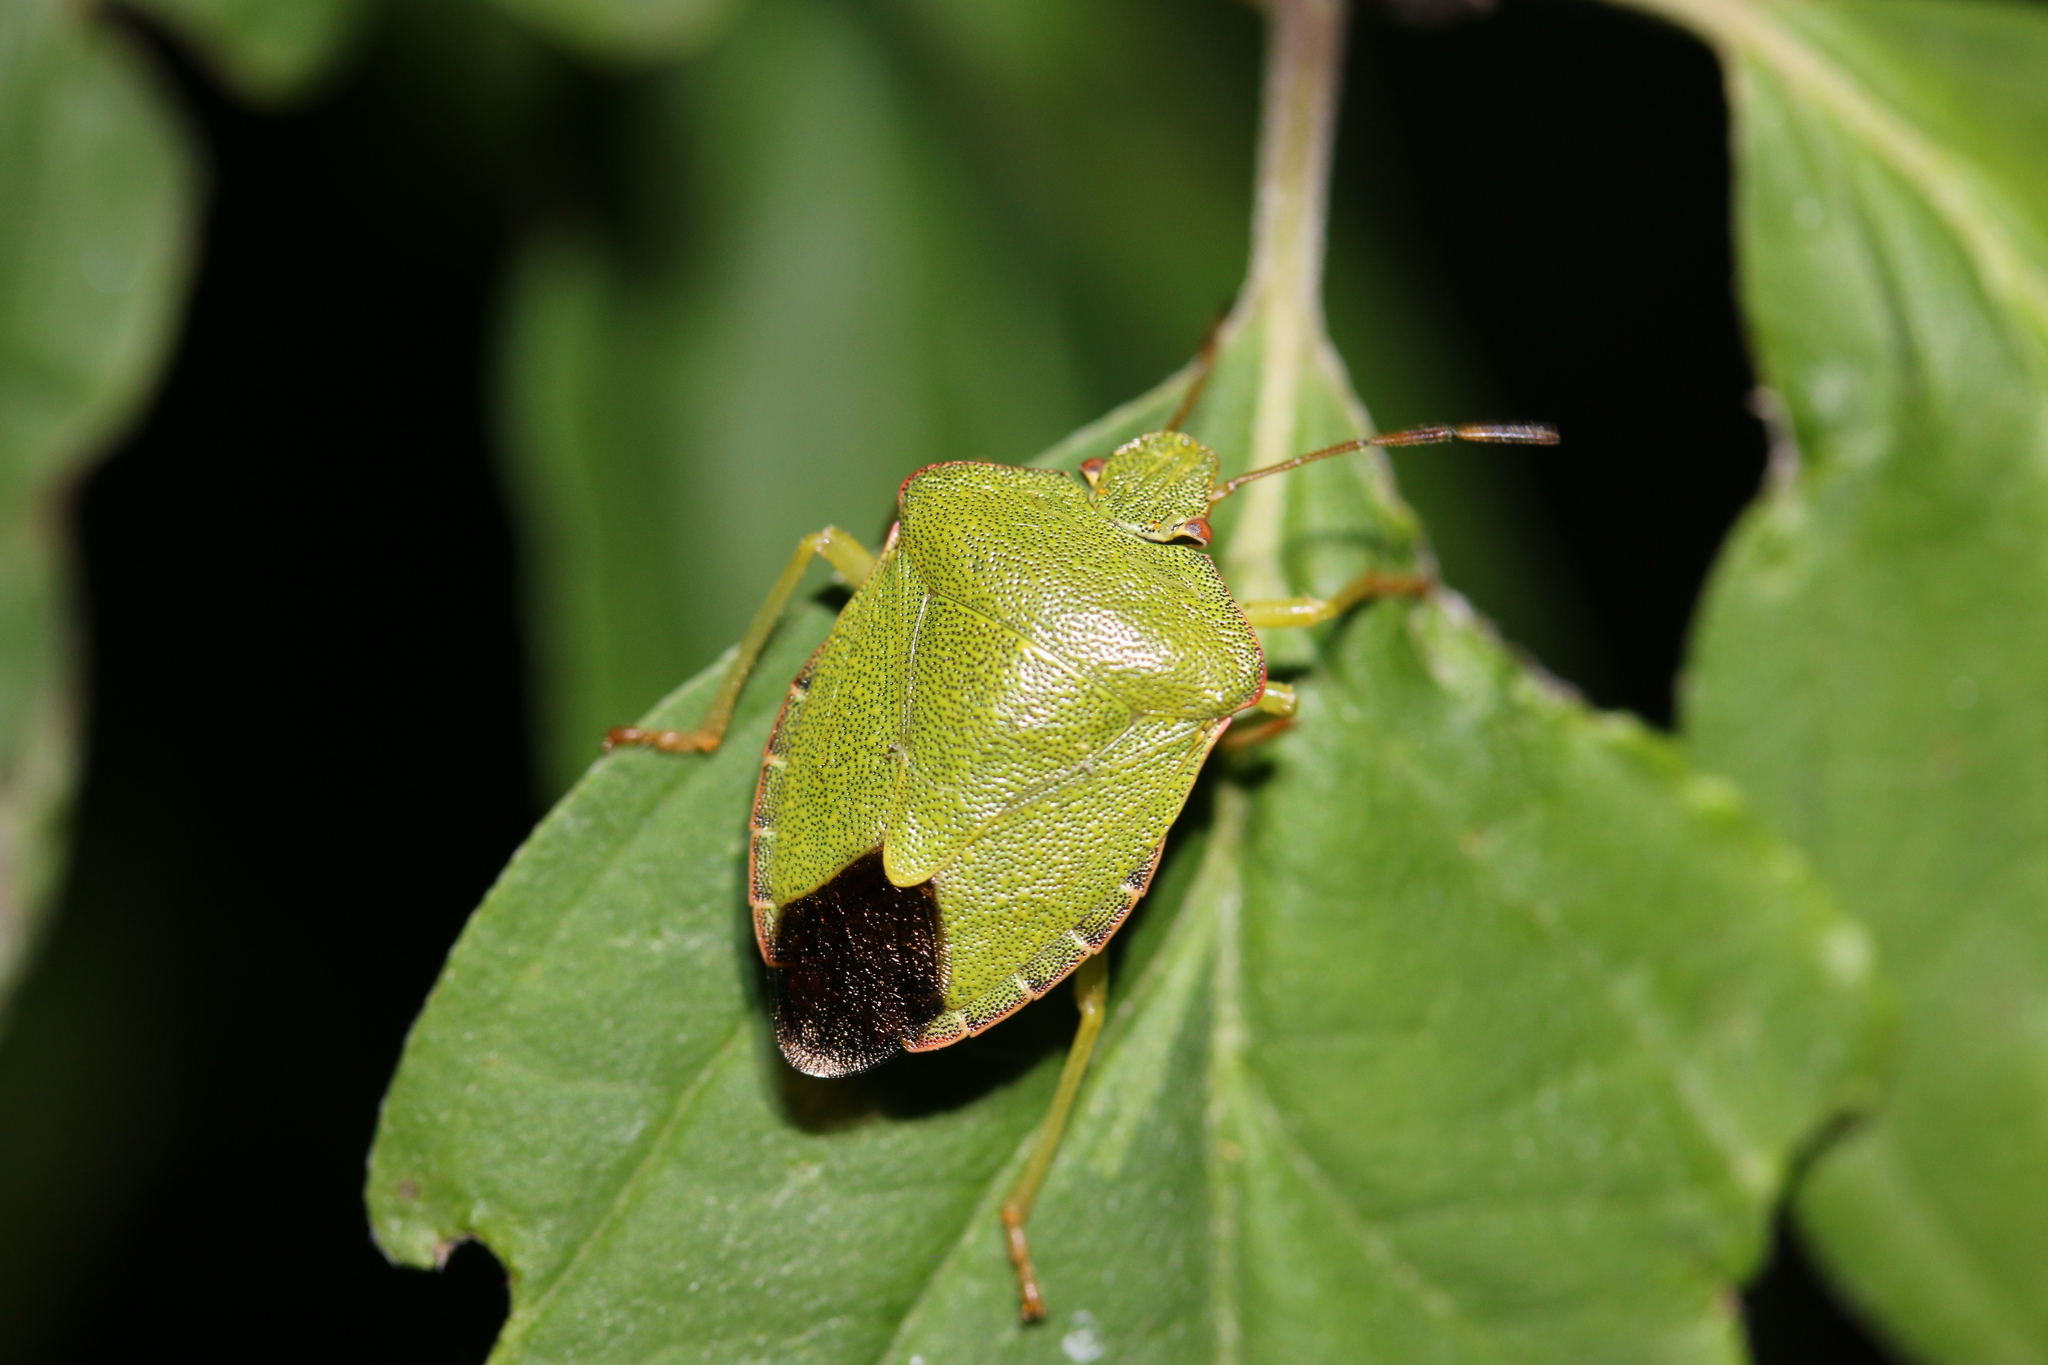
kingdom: Animalia
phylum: Arthropoda
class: Insecta
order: Hemiptera
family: Pentatomidae
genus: Palomena
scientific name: Palomena prasina
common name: Green shieldbug
